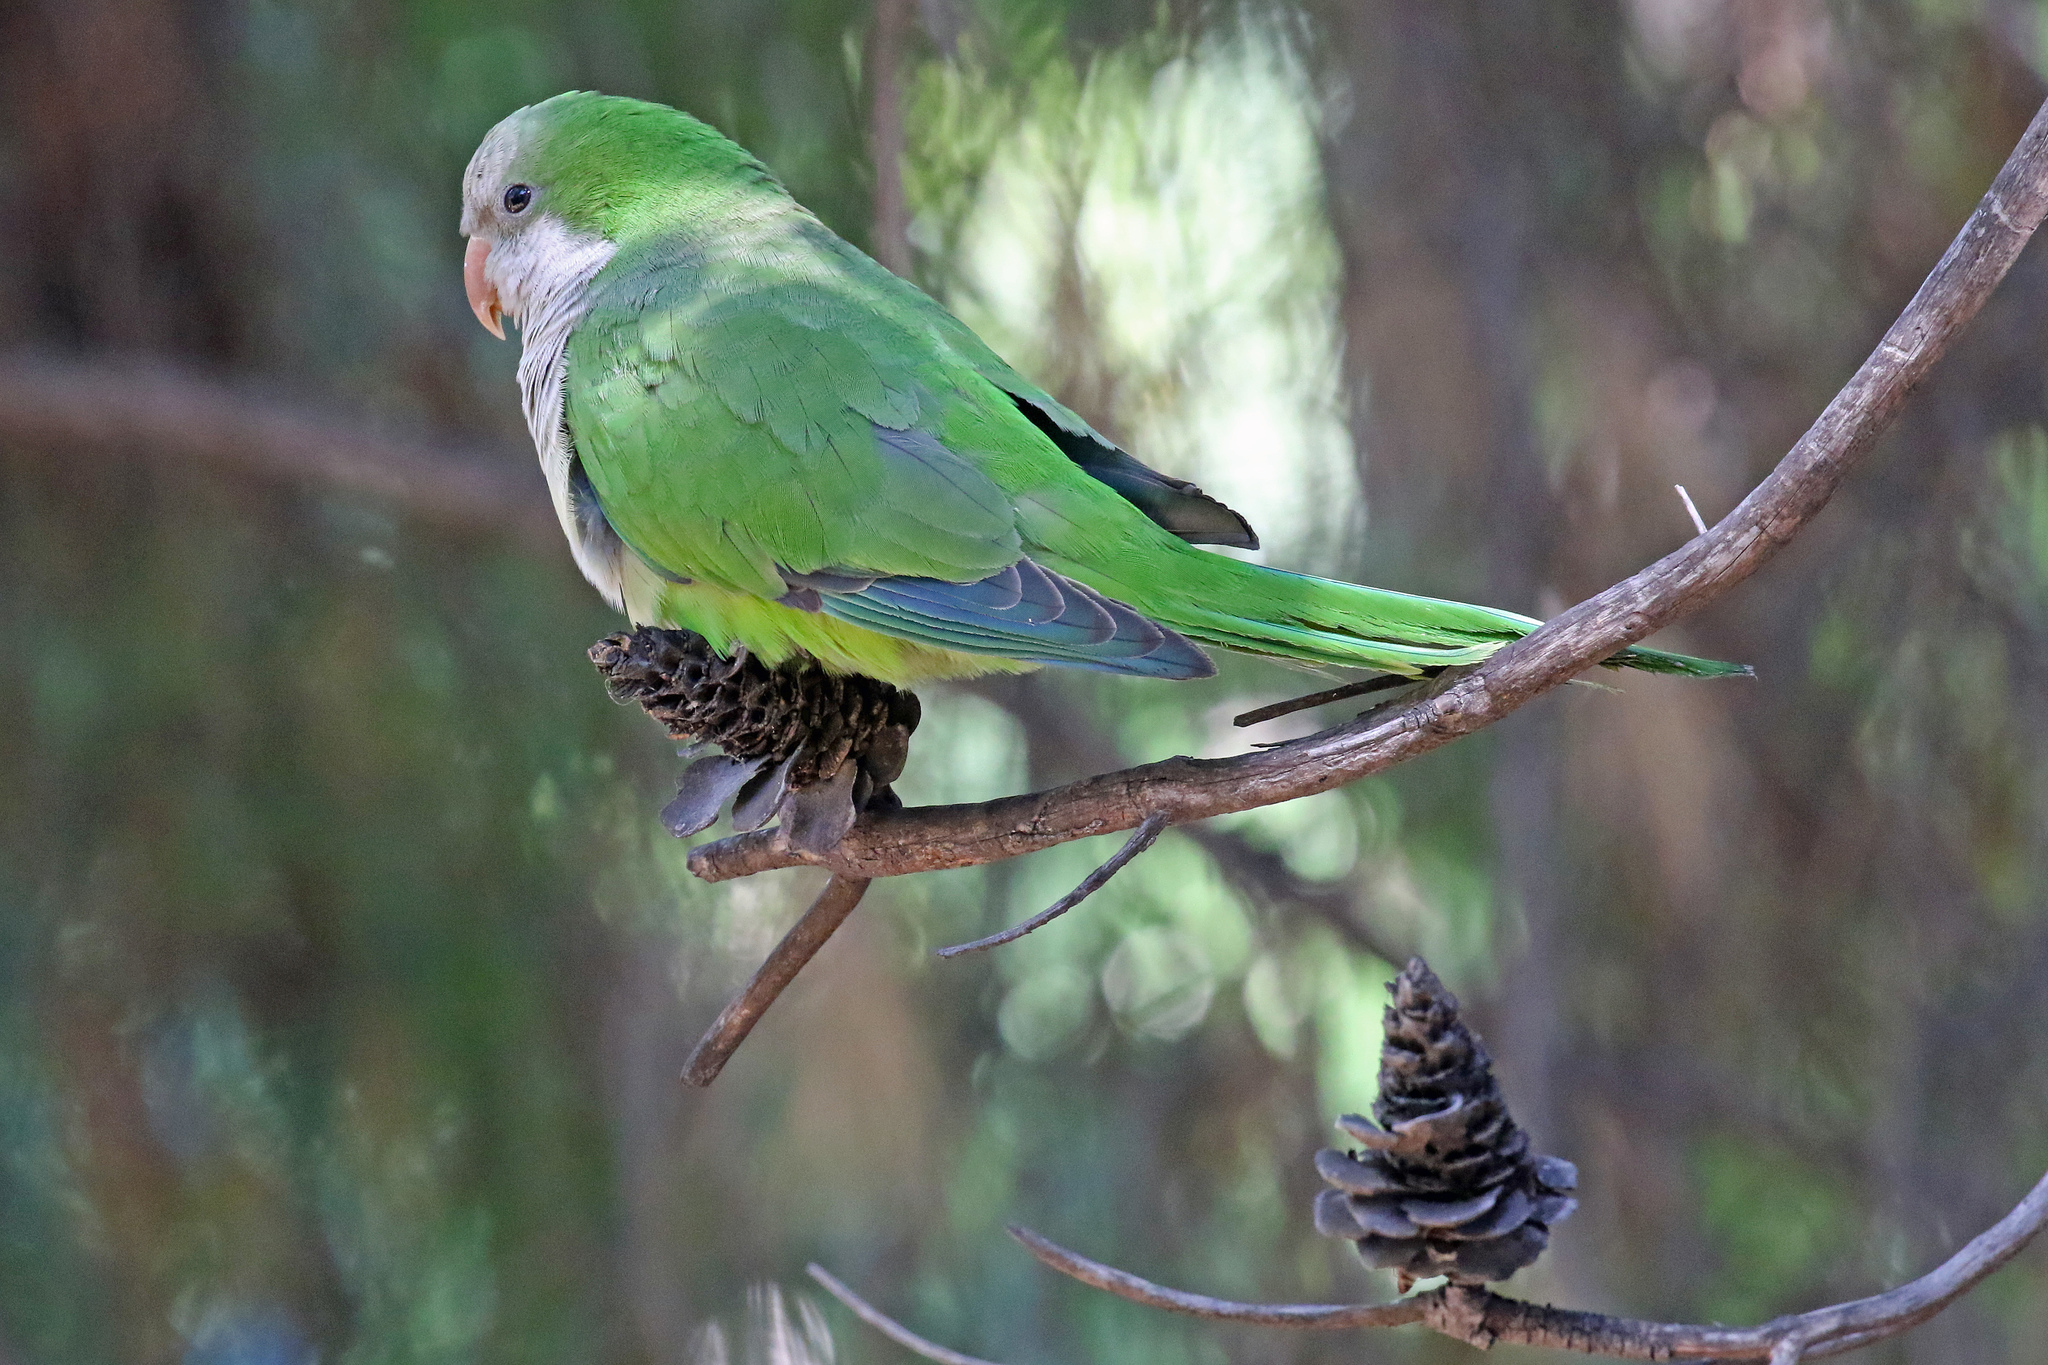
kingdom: Animalia
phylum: Chordata
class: Aves
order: Psittaciformes
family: Psittacidae
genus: Myiopsitta
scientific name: Myiopsitta monachus
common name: Monk parakeet
